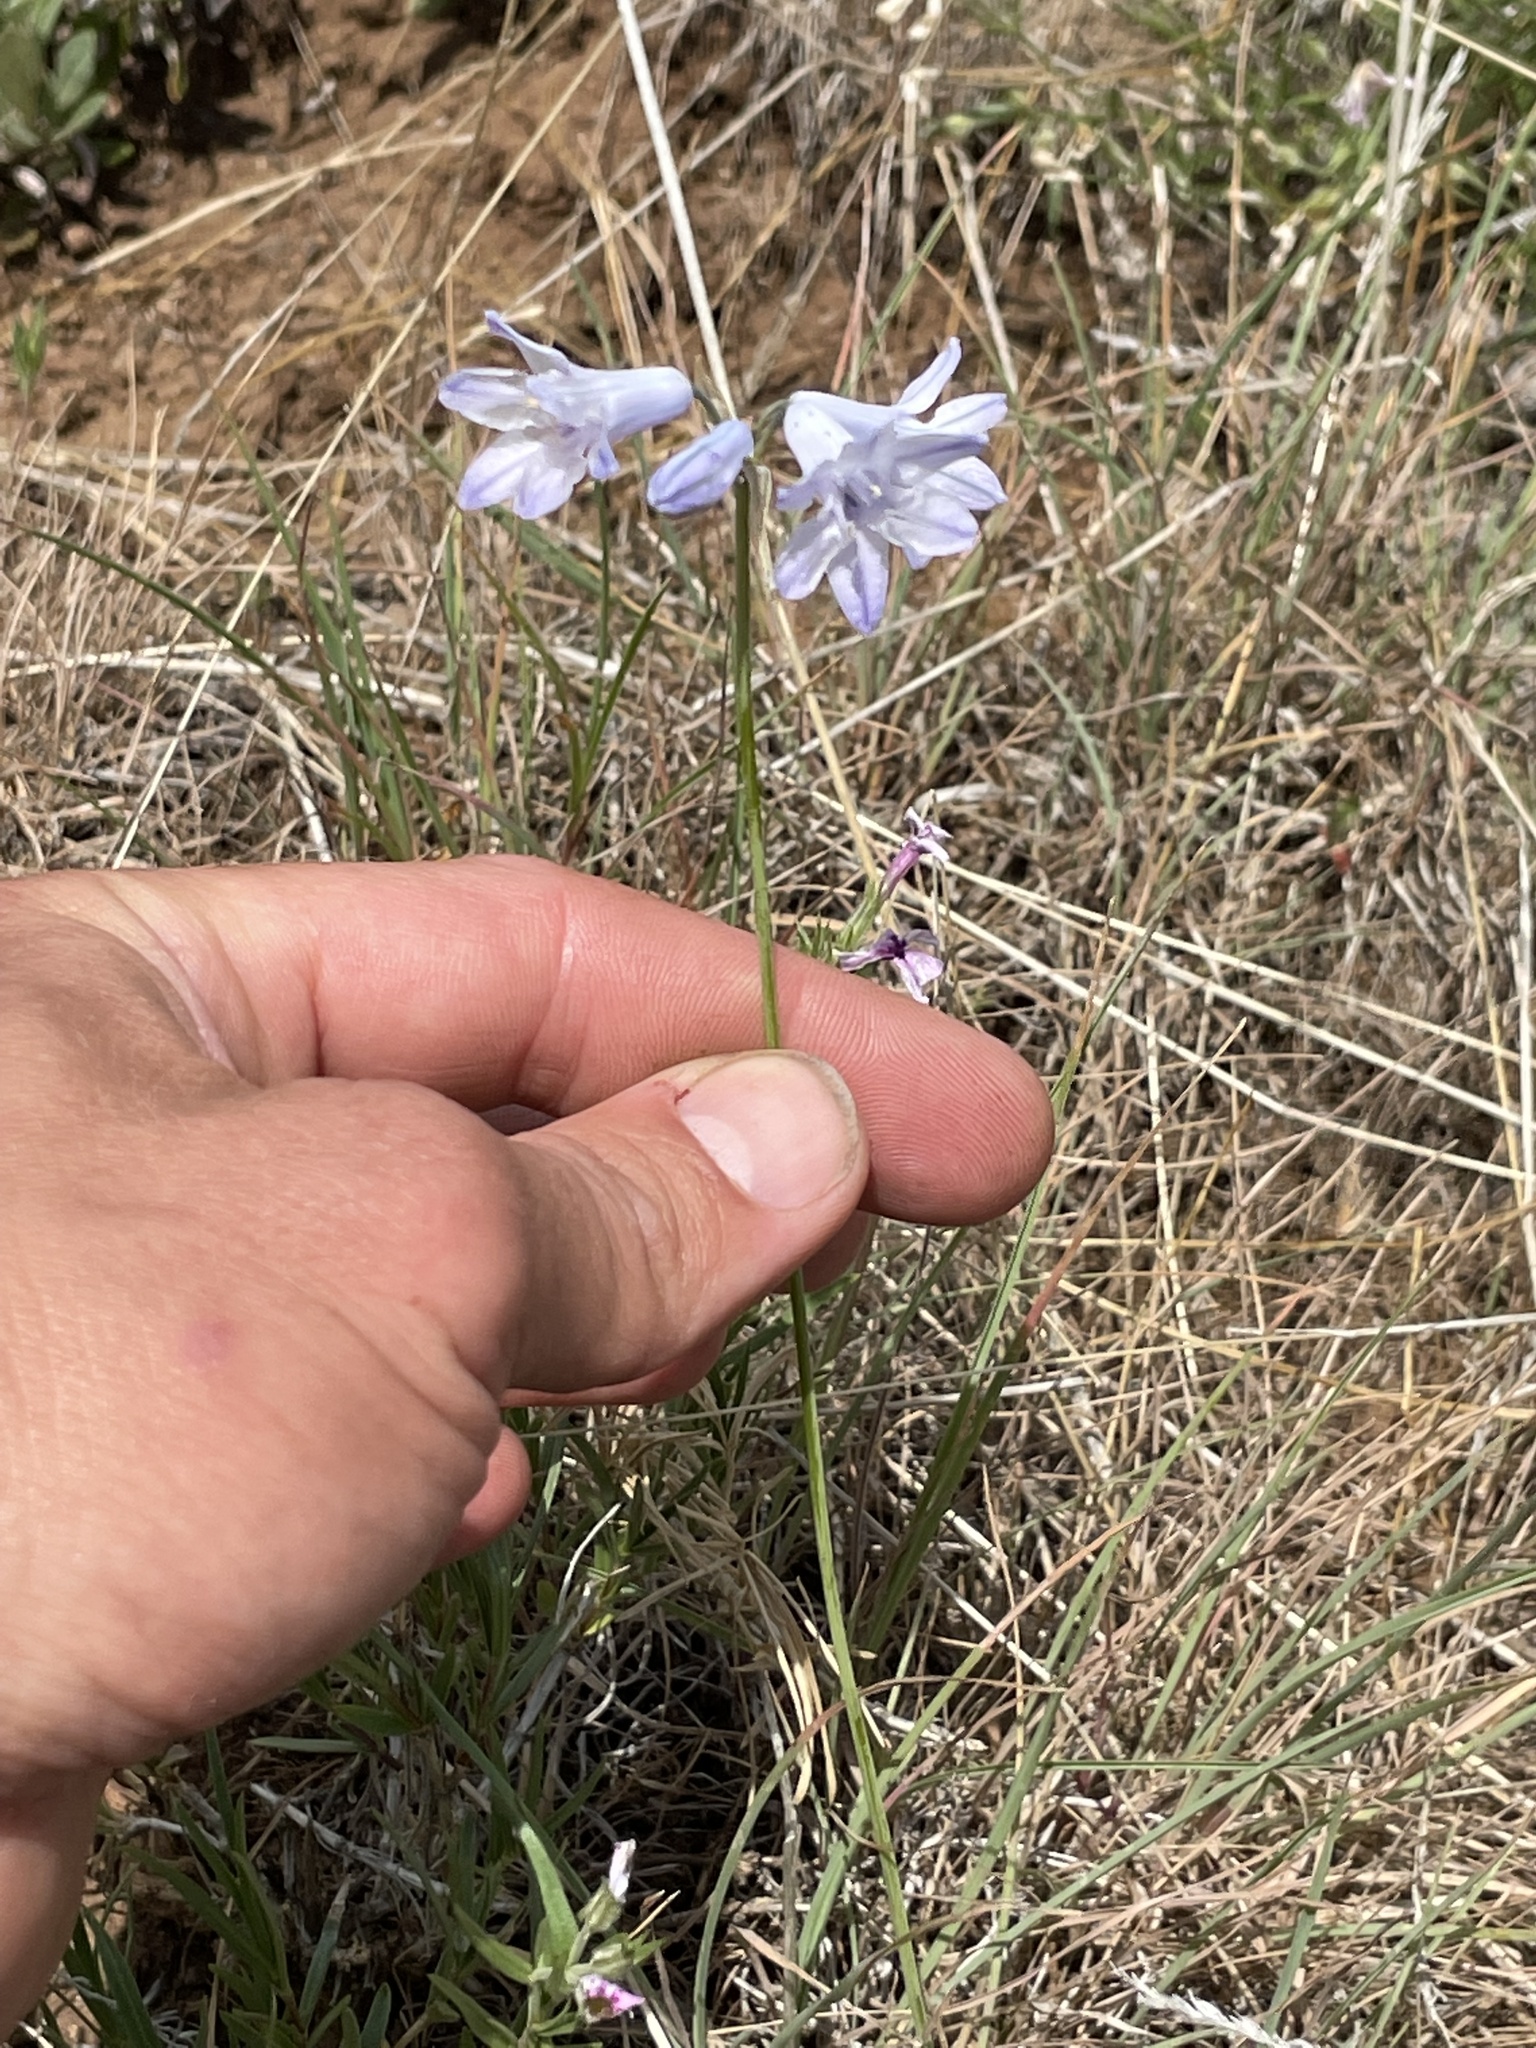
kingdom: Plantae
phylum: Tracheophyta
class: Liliopsida
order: Asparagales
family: Asparagaceae
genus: Triteleia
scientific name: Triteleia grandiflora
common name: Wild hyacinth
